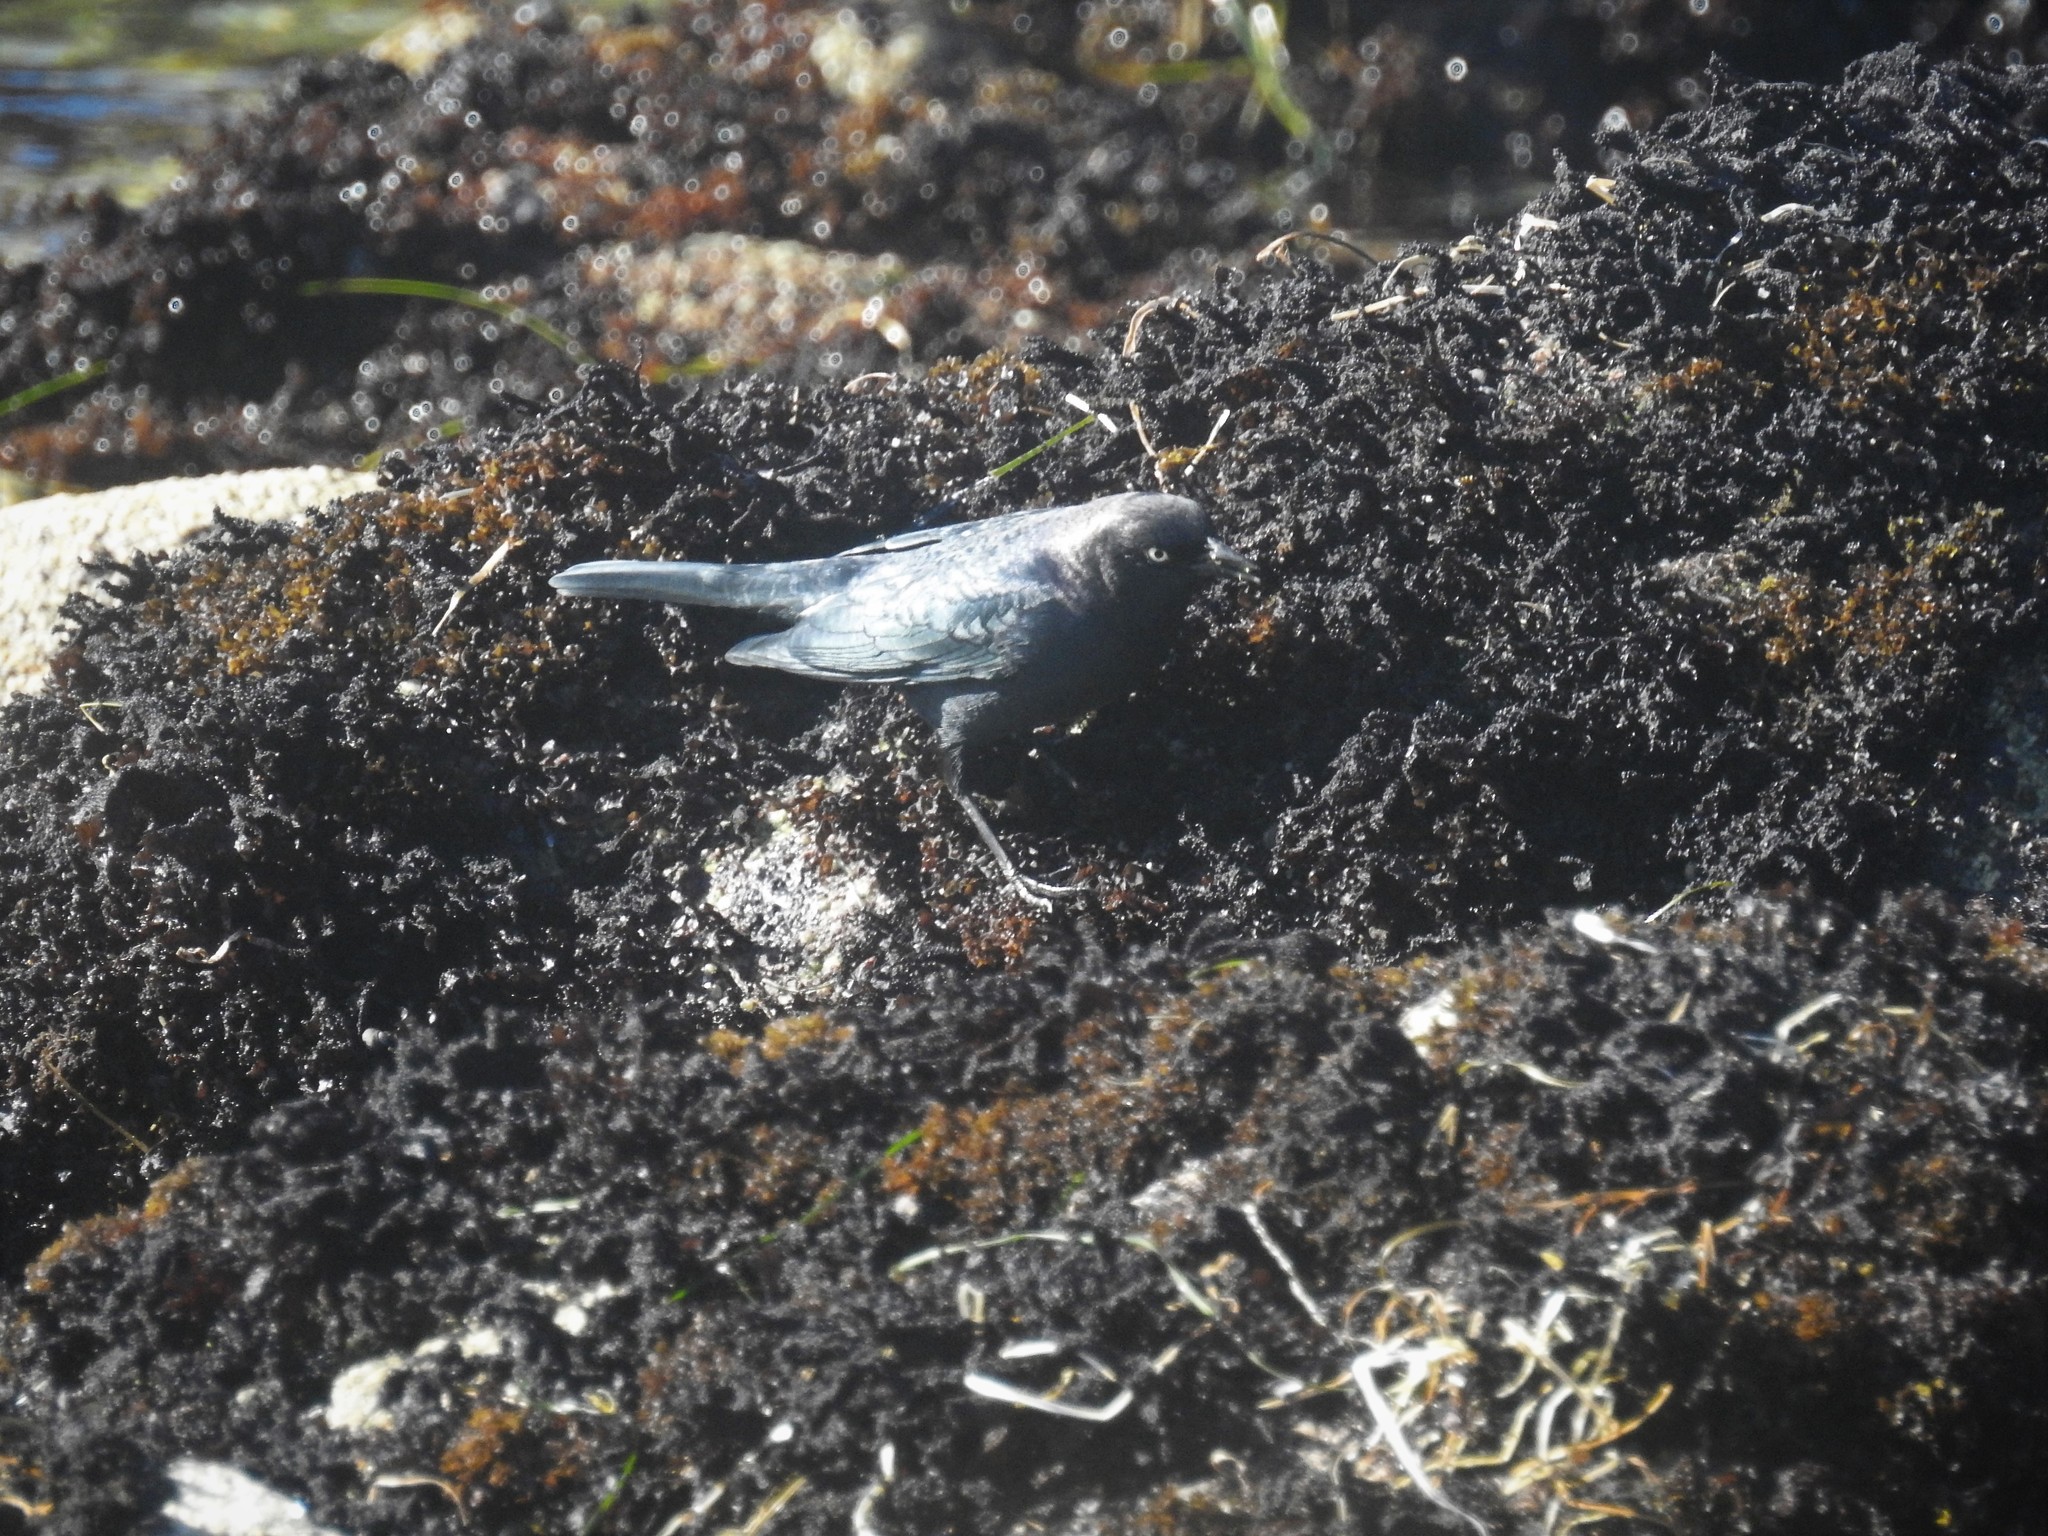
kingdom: Animalia
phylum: Chordata
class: Aves
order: Passeriformes
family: Icteridae
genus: Euphagus
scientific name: Euphagus cyanocephalus
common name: Brewer's blackbird
